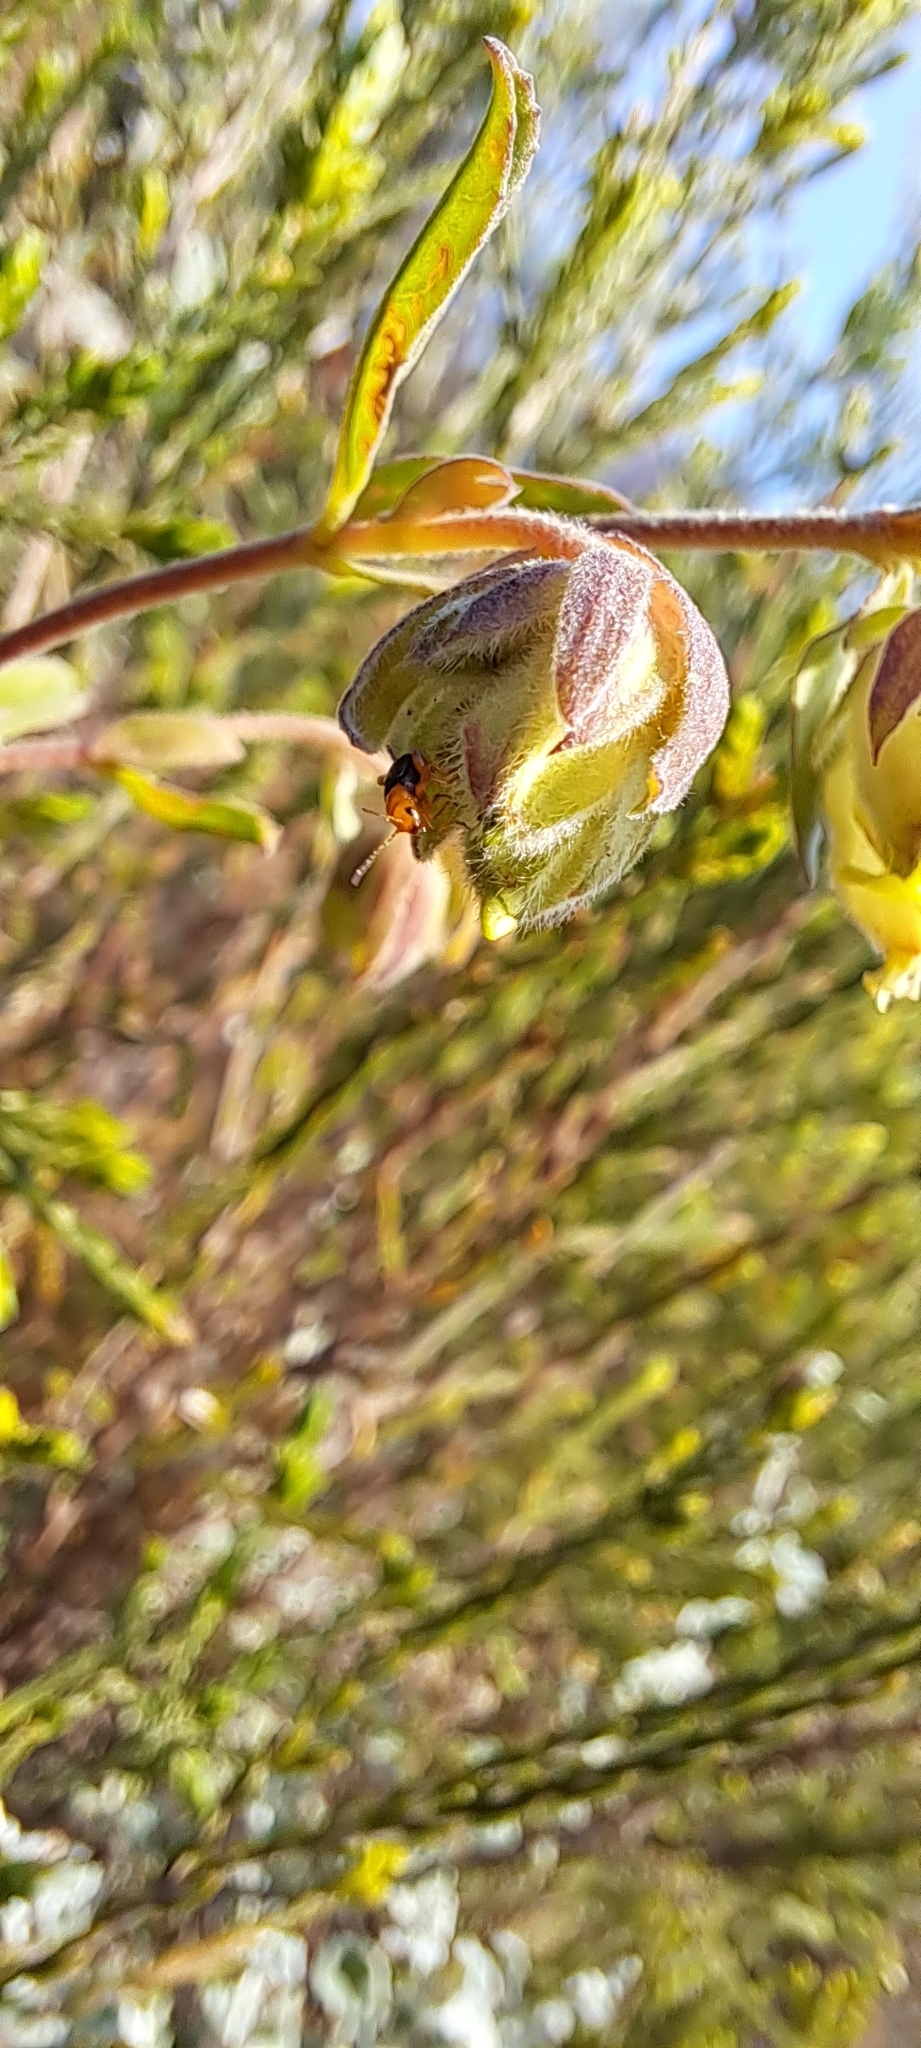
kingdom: Plantae
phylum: Tracheophyta
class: Magnoliopsida
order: Malvales
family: Malvaceae
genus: Hermannia
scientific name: Hermannia hyssopifolia
